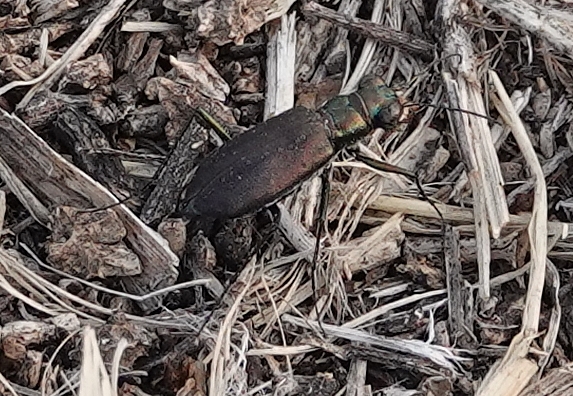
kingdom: Animalia
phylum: Arthropoda
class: Insecta
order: Coleoptera
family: Carabidae
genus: Cicindela
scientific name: Cicindela punctulata
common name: Punctured tiger beetle
